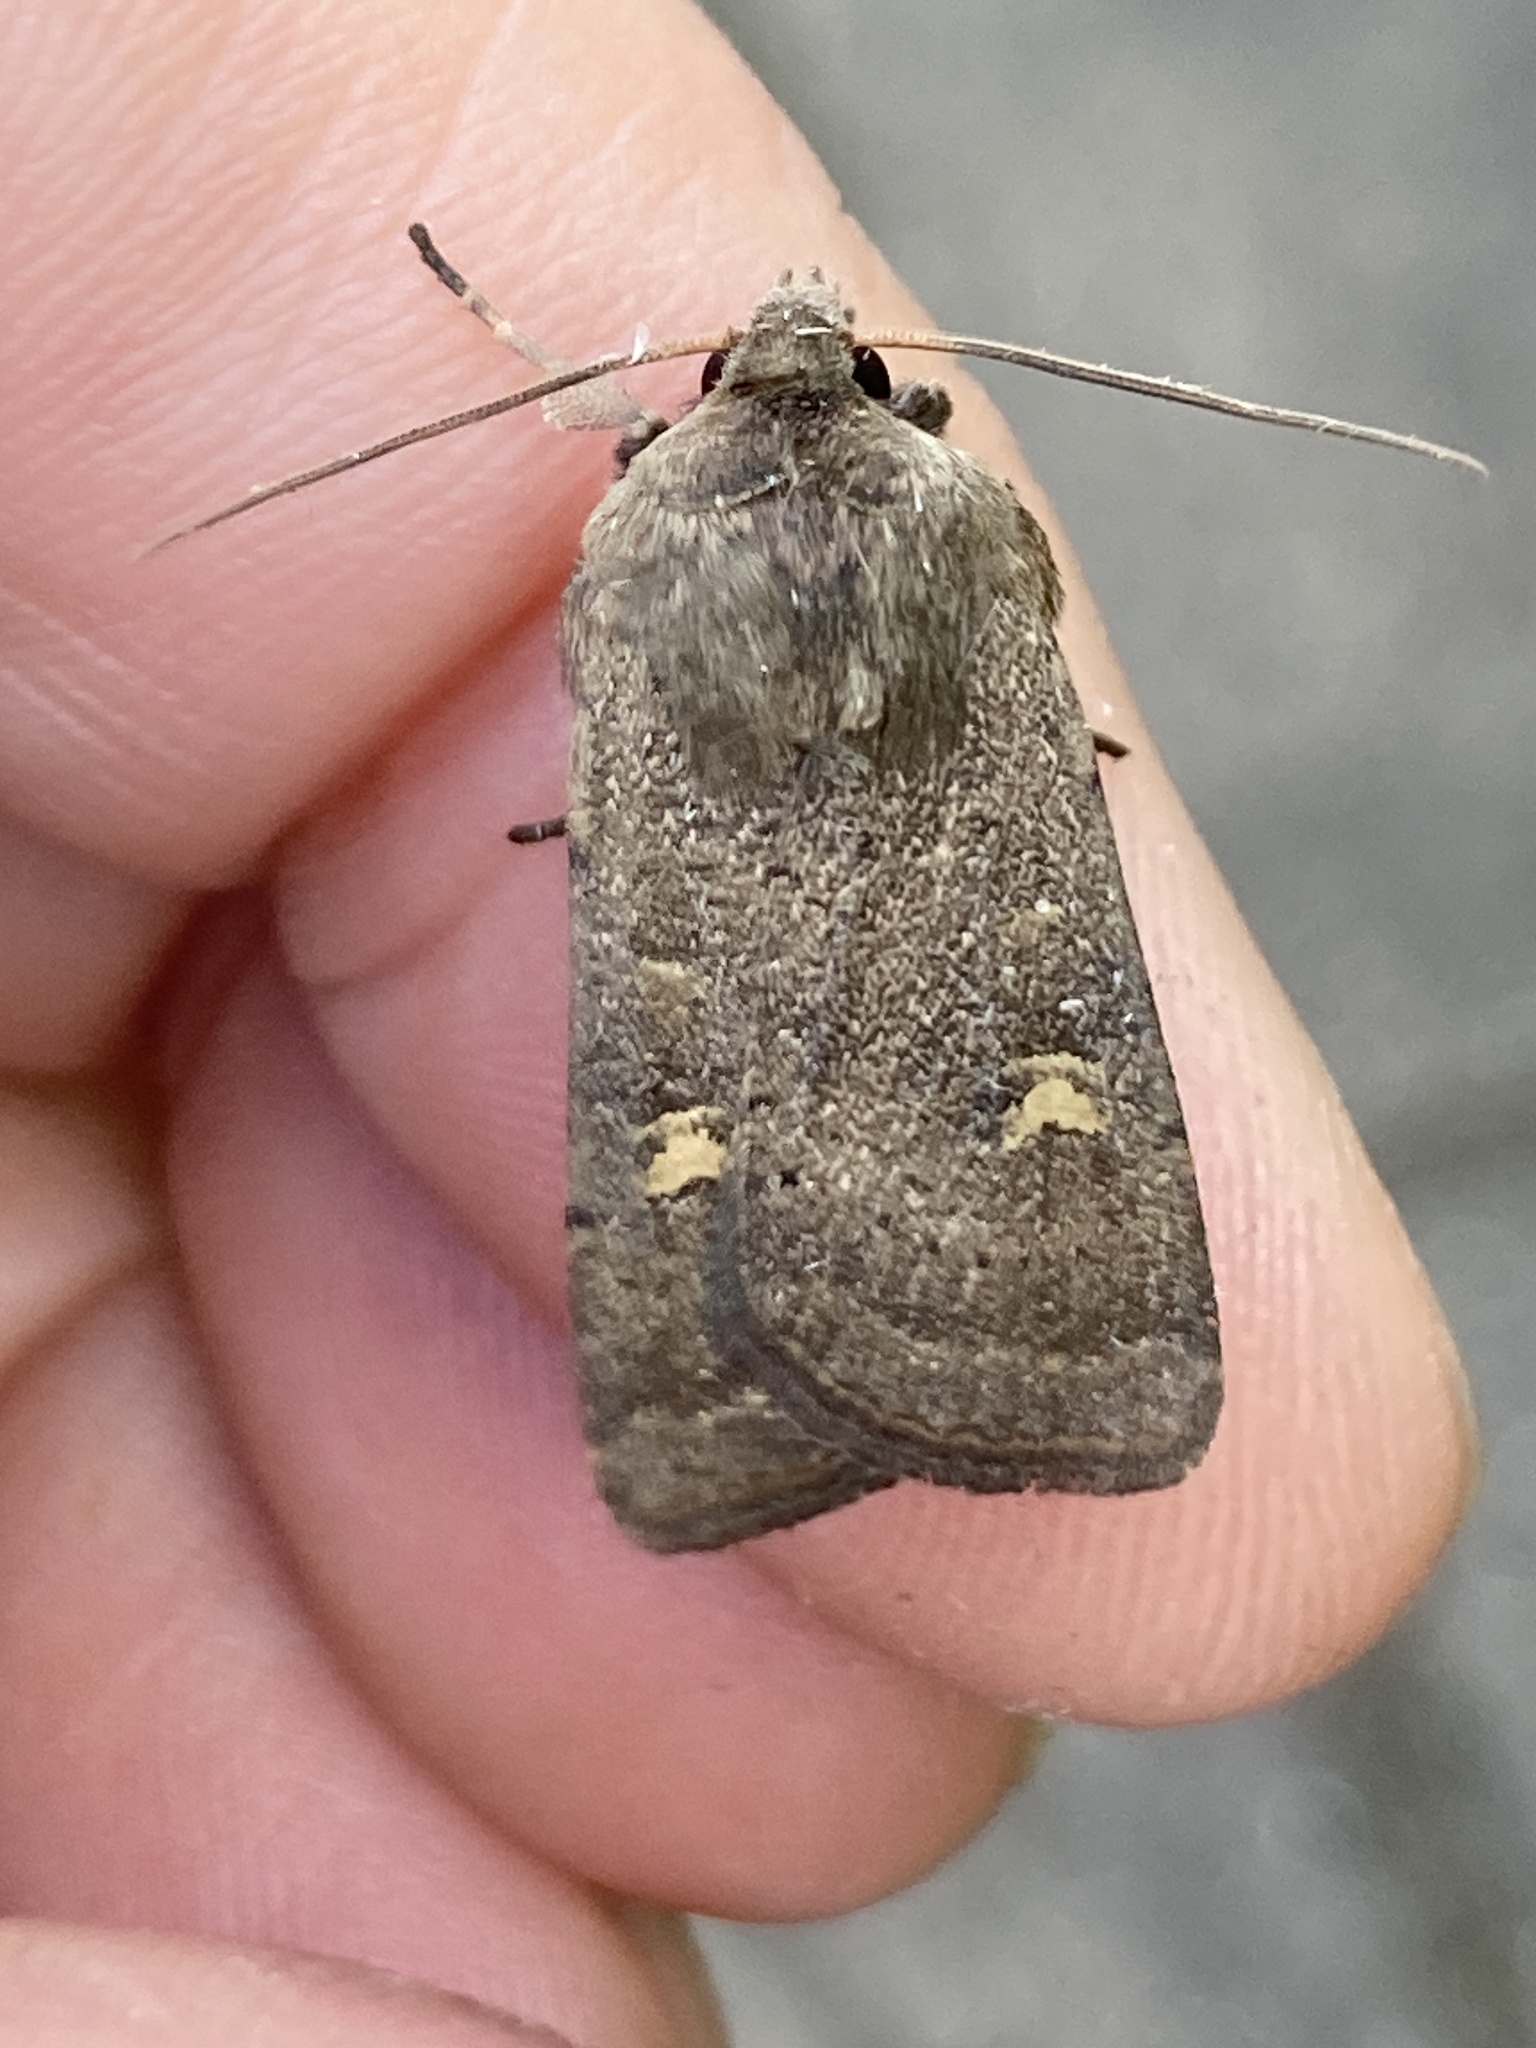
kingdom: Animalia
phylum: Arthropoda
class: Insecta
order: Lepidoptera
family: Noctuidae
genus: Xestia
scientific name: Xestia xanthographa
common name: Square-spot rustic
